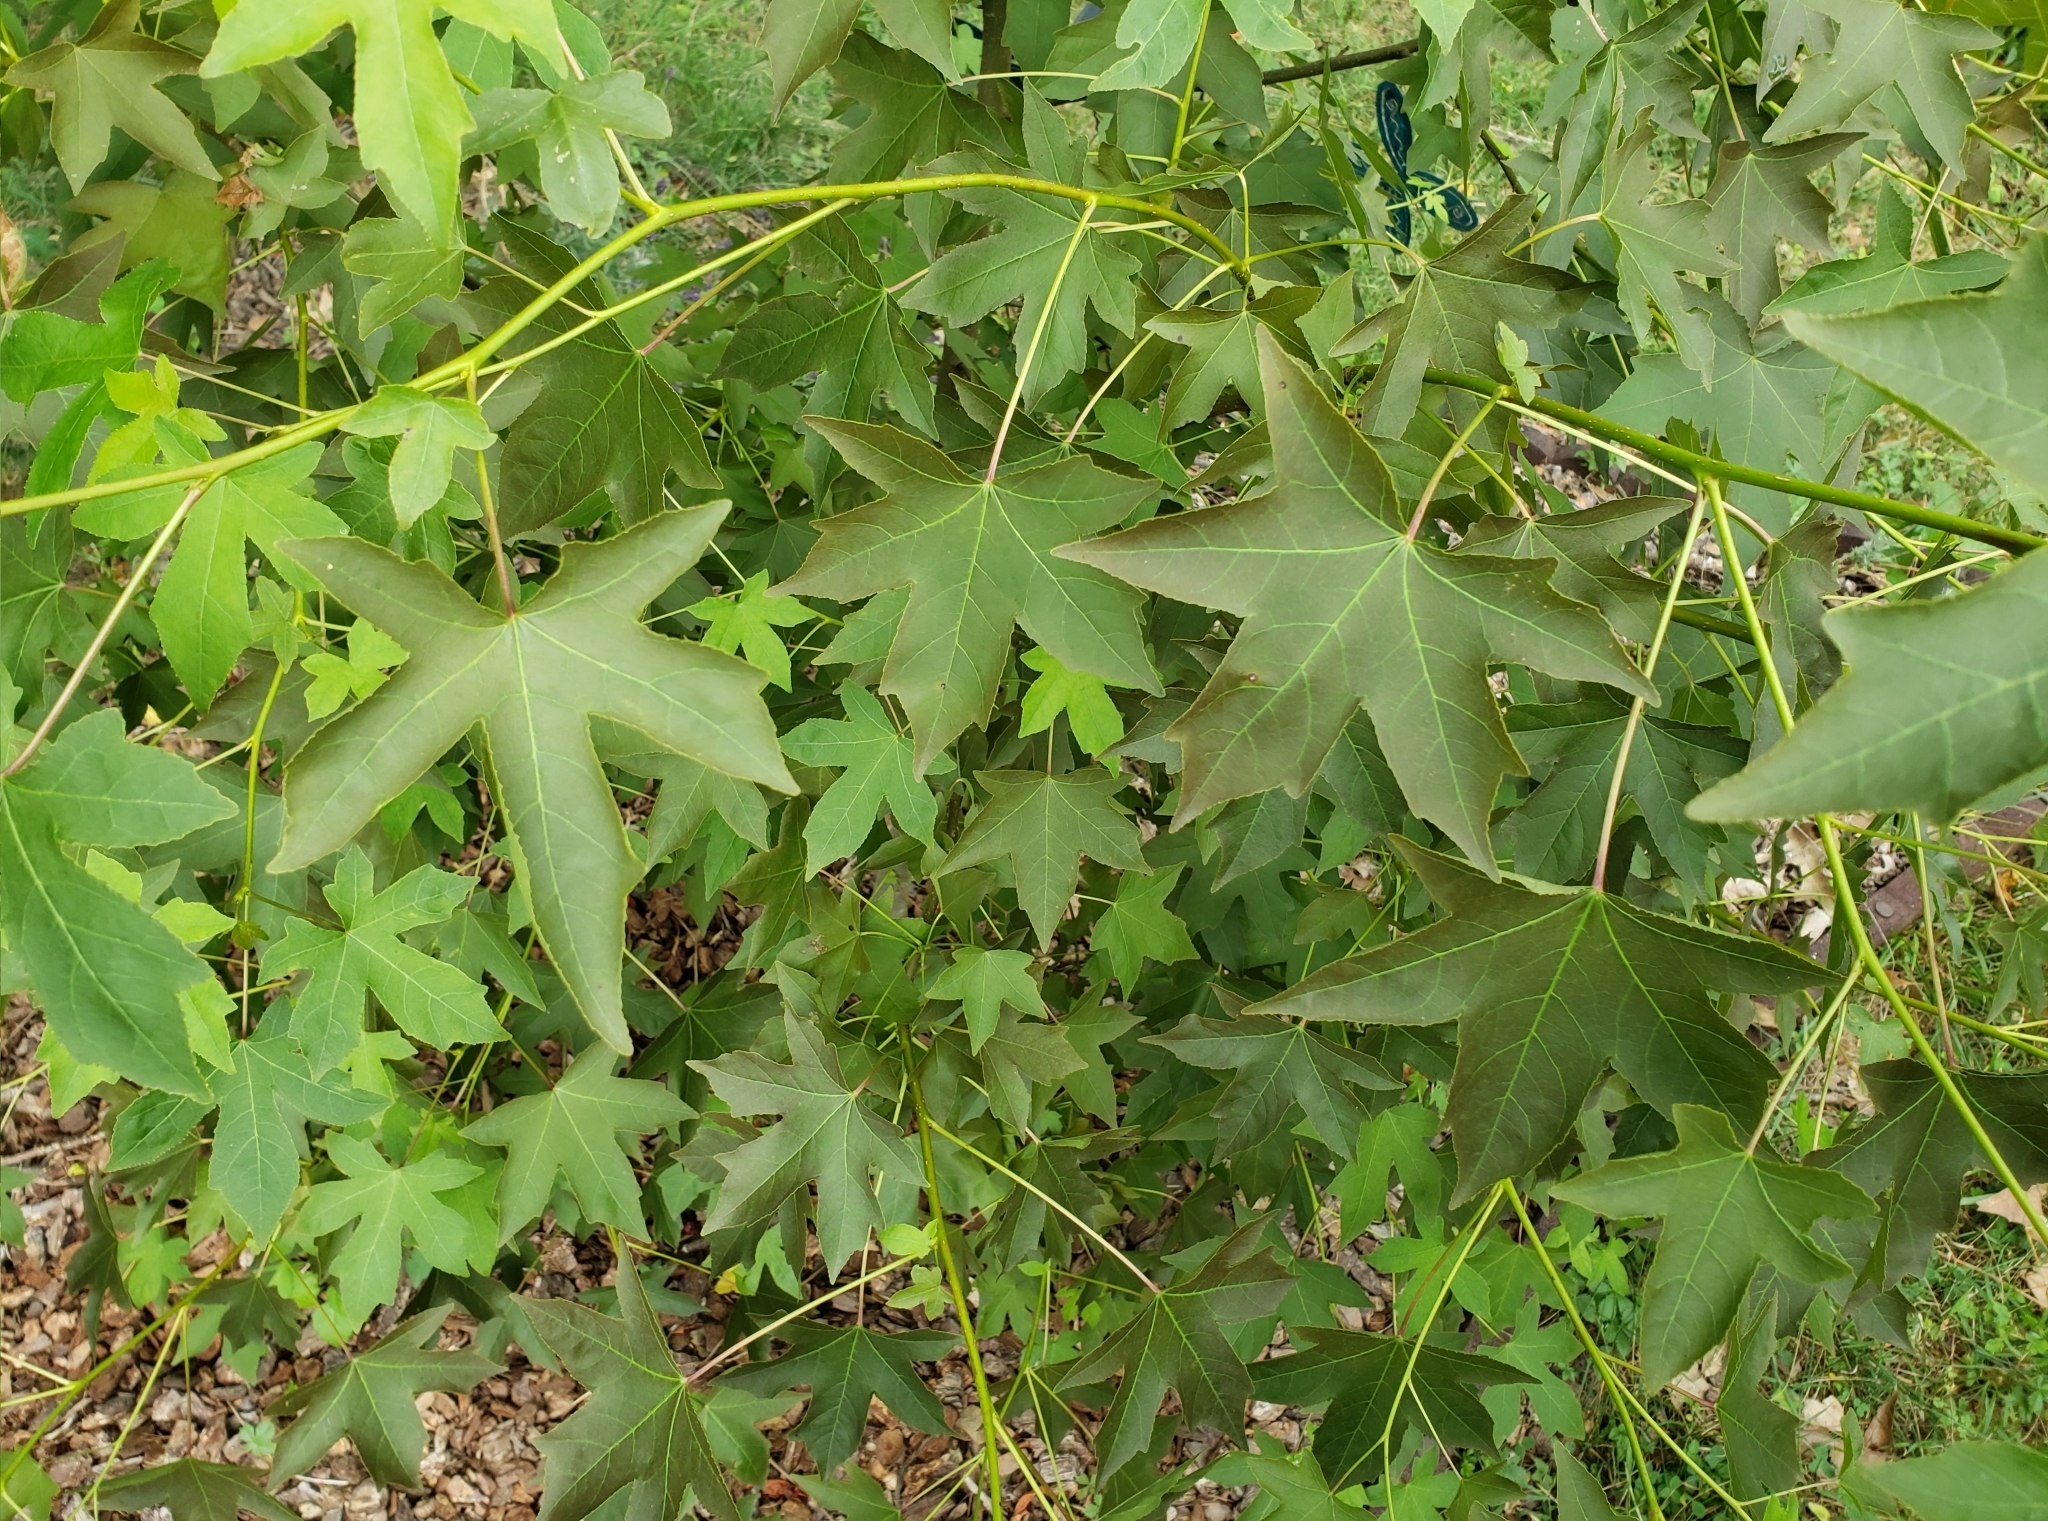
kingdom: Plantae
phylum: Tracheophyta
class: Magnoliopsida
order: Saxifragales
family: Altingiaceae
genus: Liquidambar
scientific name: Liquidambar styraciflua
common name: Sweet gum
